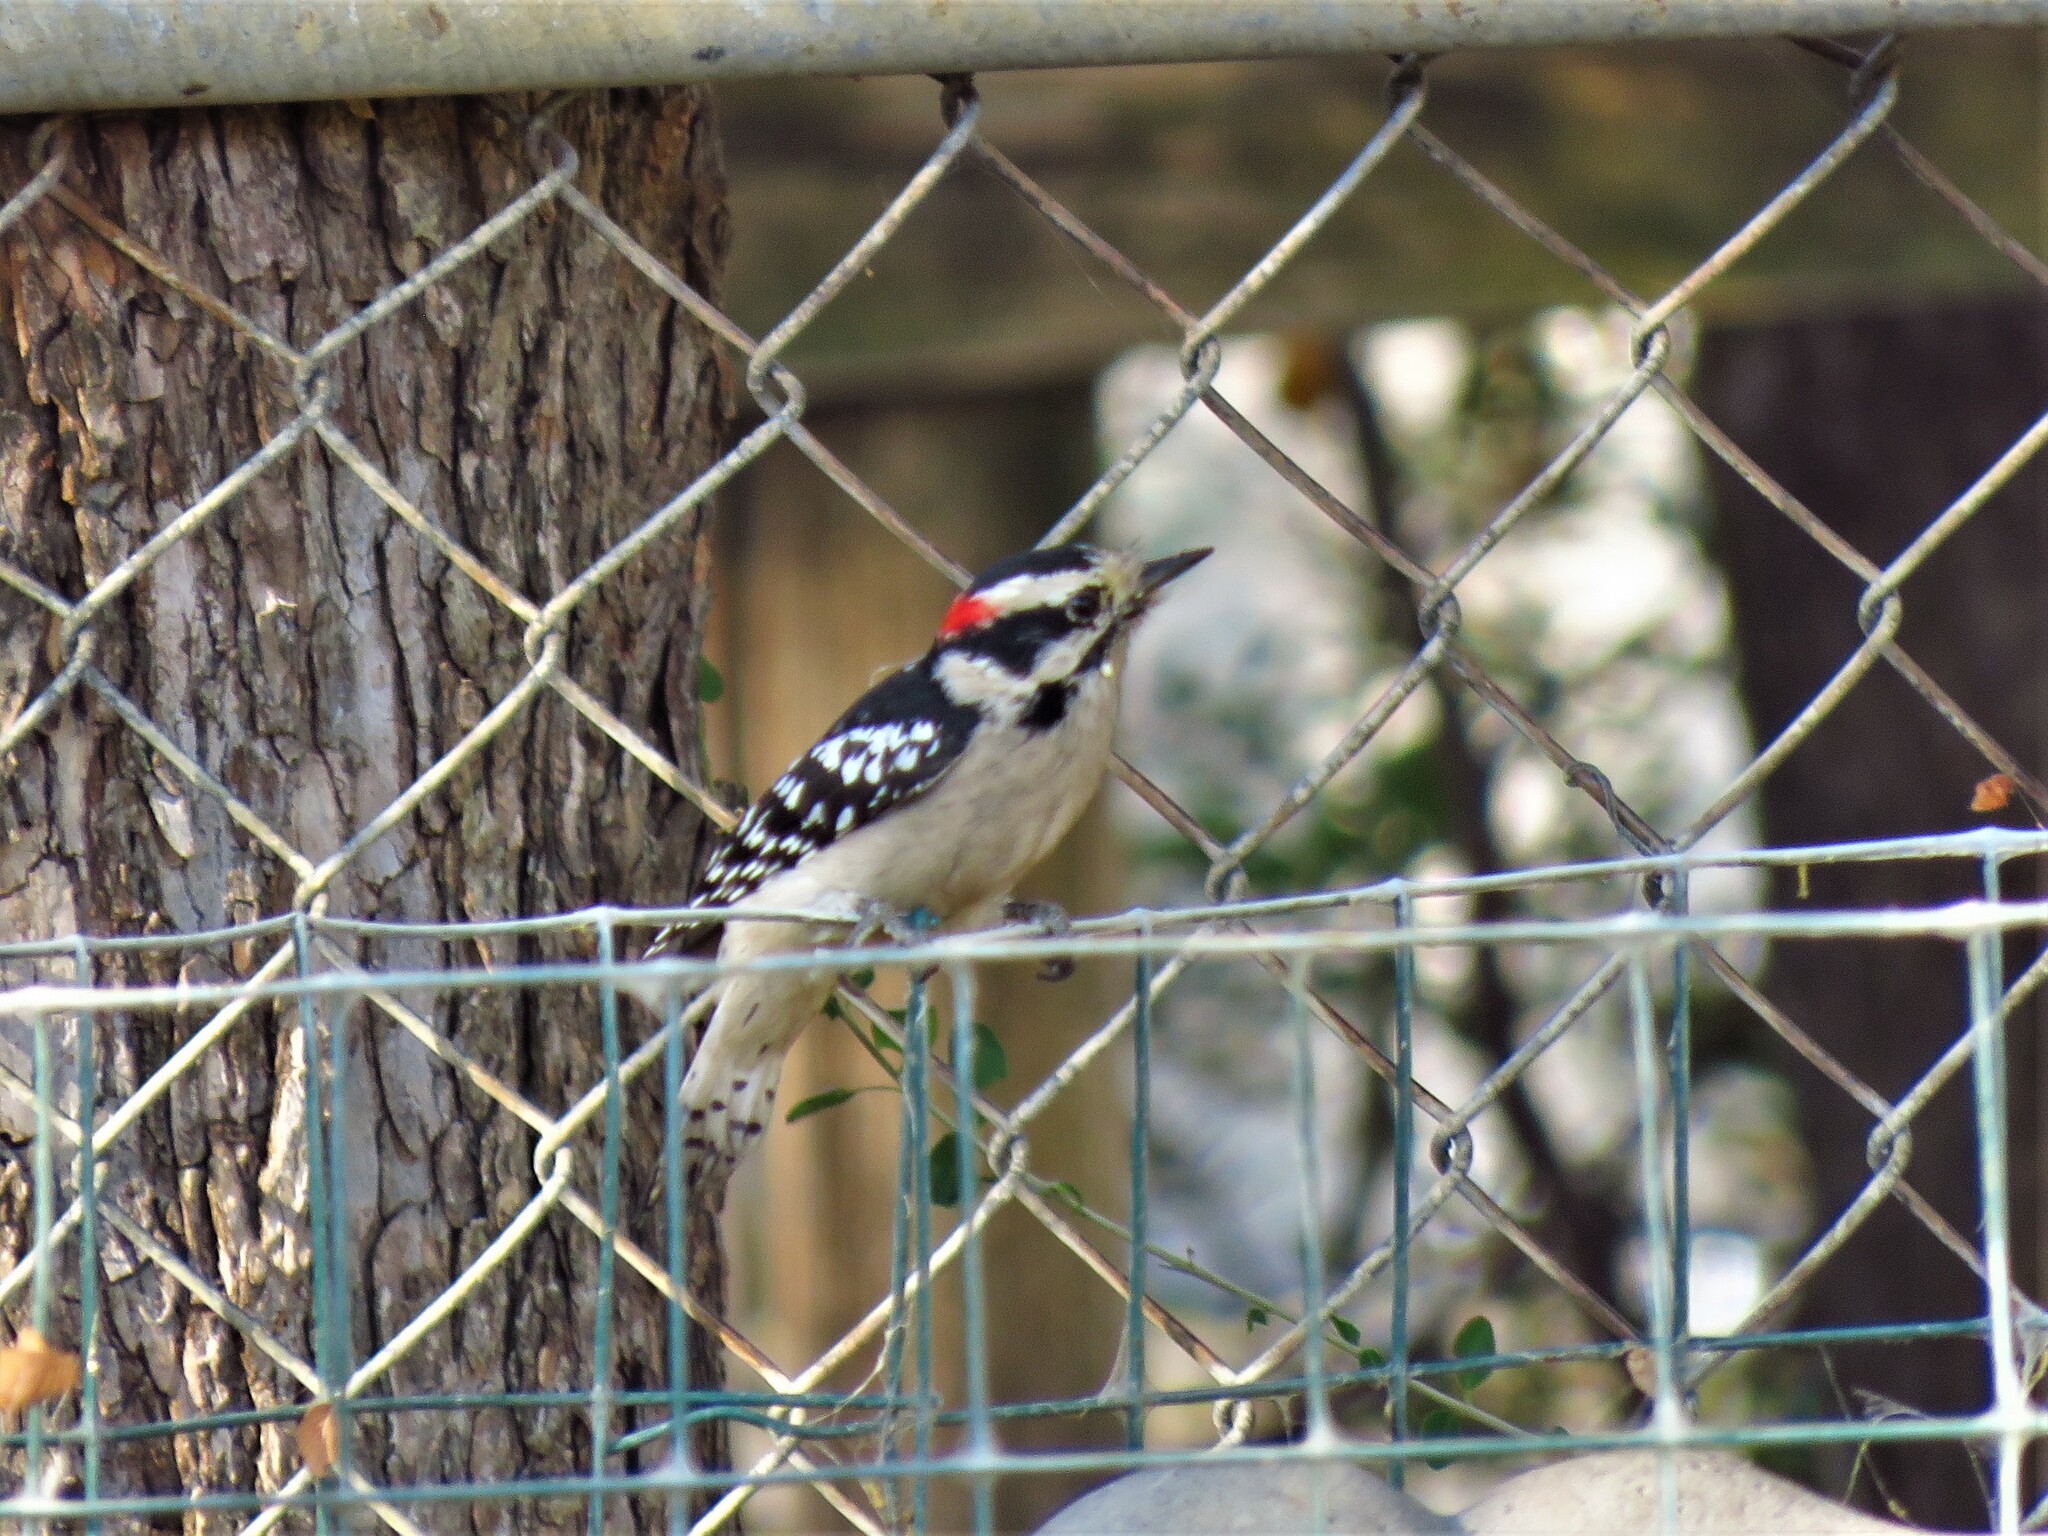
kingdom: Animalia
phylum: Chordata
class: Aves
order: Piciformes
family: Picidae
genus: Dryobates
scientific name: Dryobates pubescens
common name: Downy woodpecker
